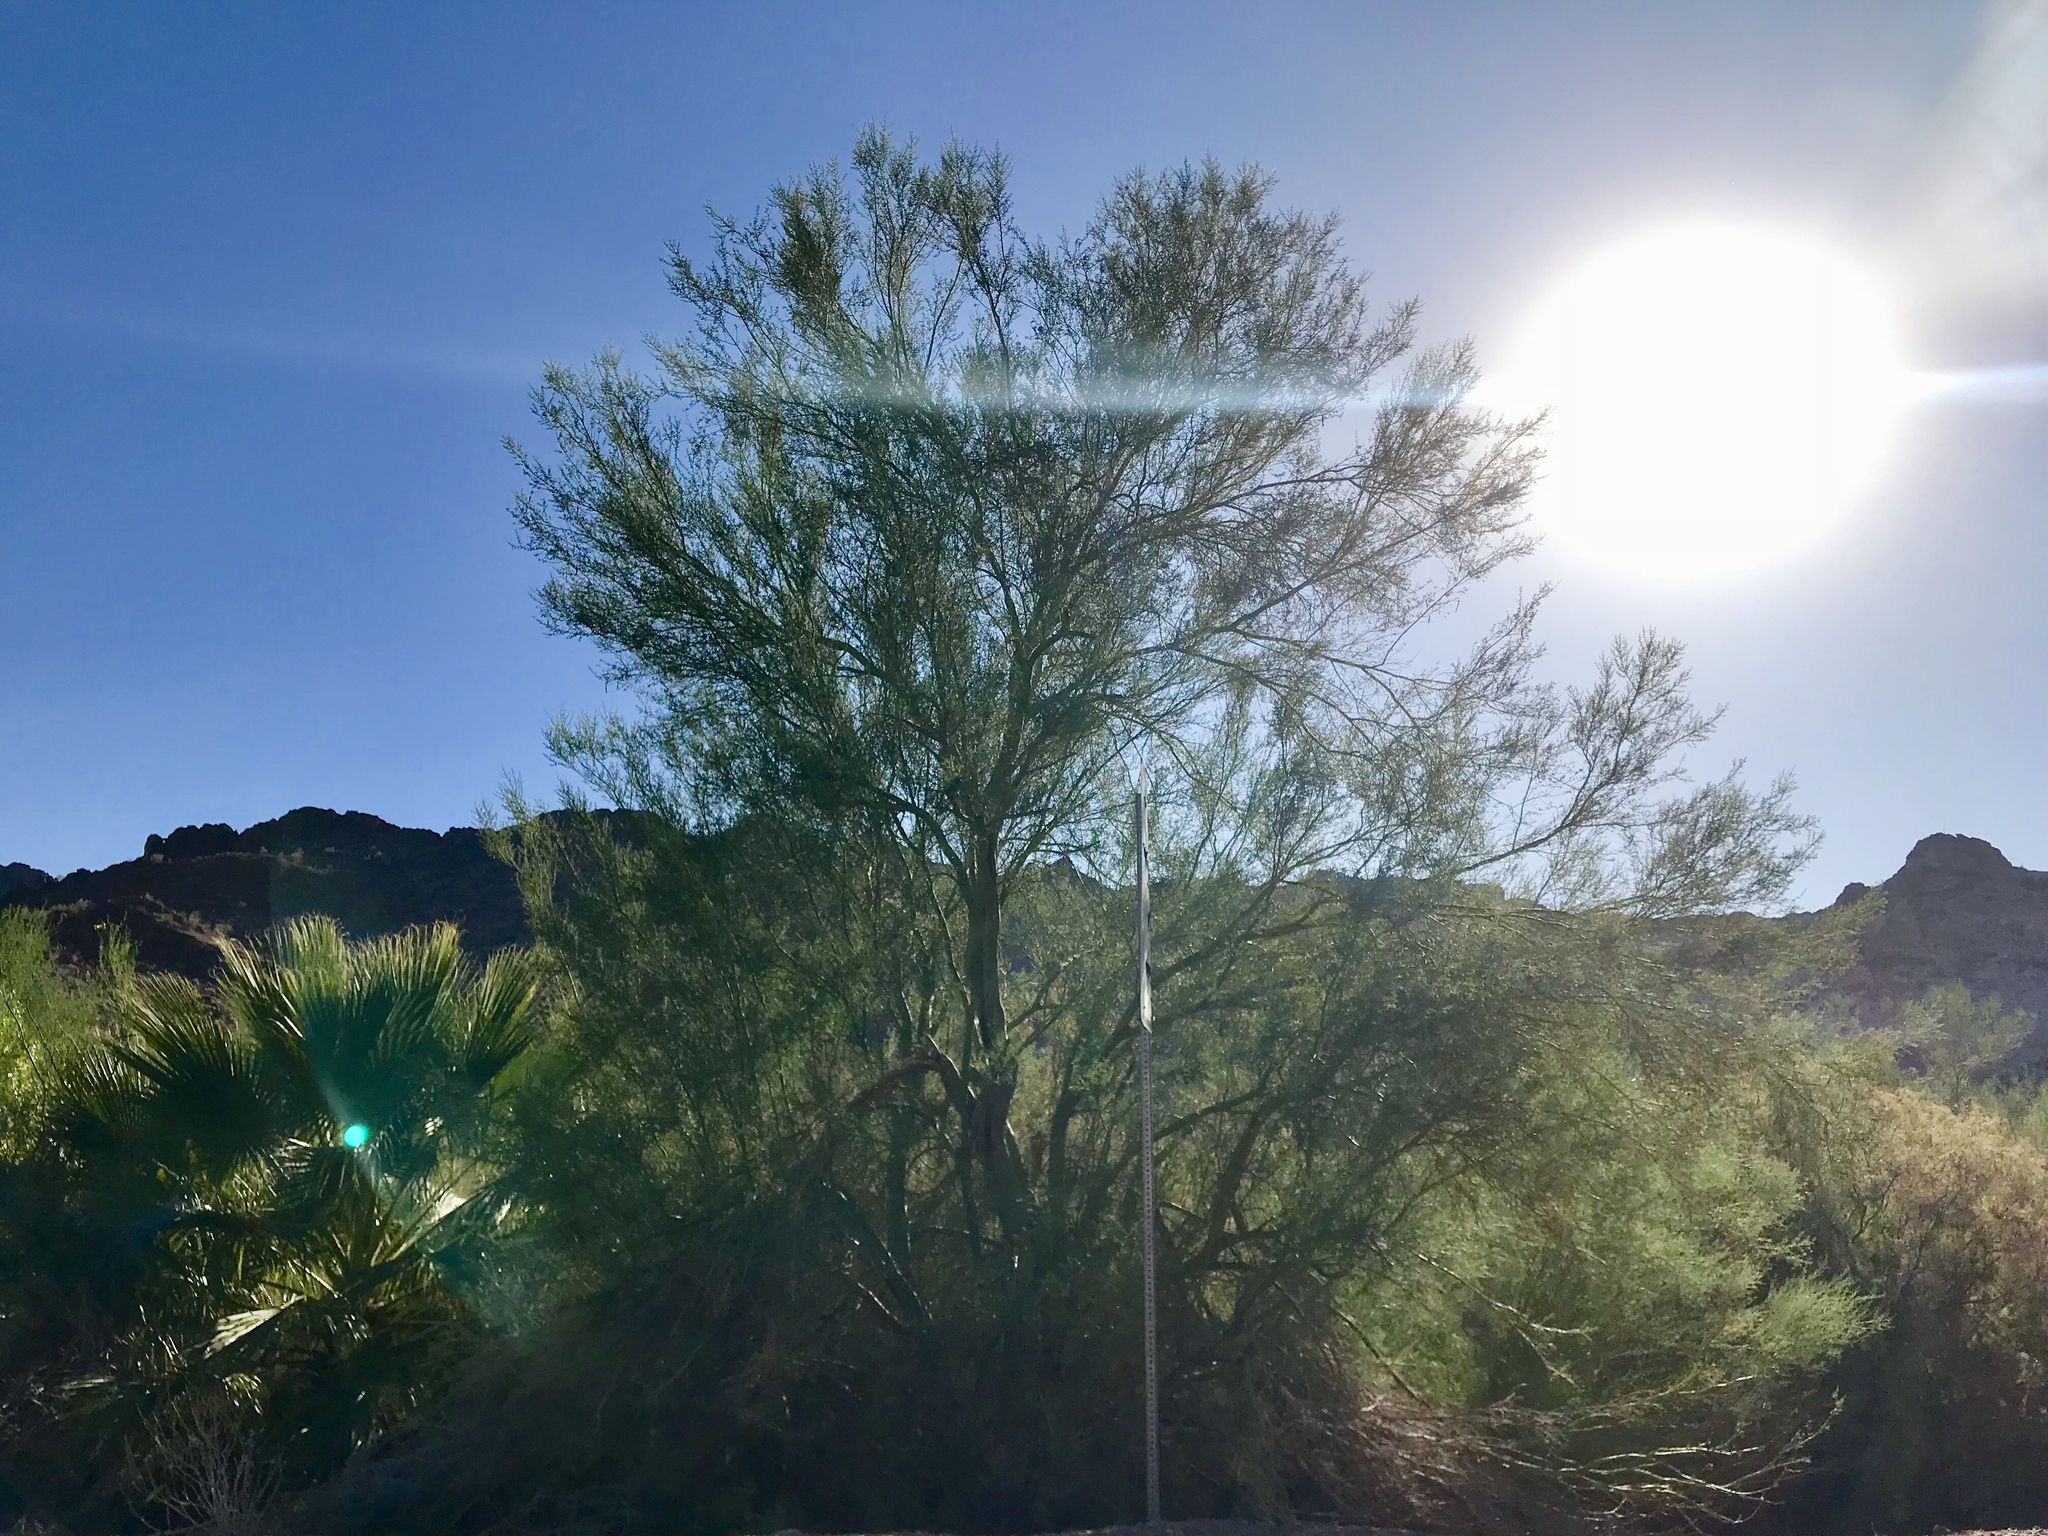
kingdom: Plantae
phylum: Tracheophyta
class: Magnoliopsida
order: Fabales
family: Fabaceae
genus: Parkinsonia
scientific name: Parkinsonia florida
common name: Blue paloverde
